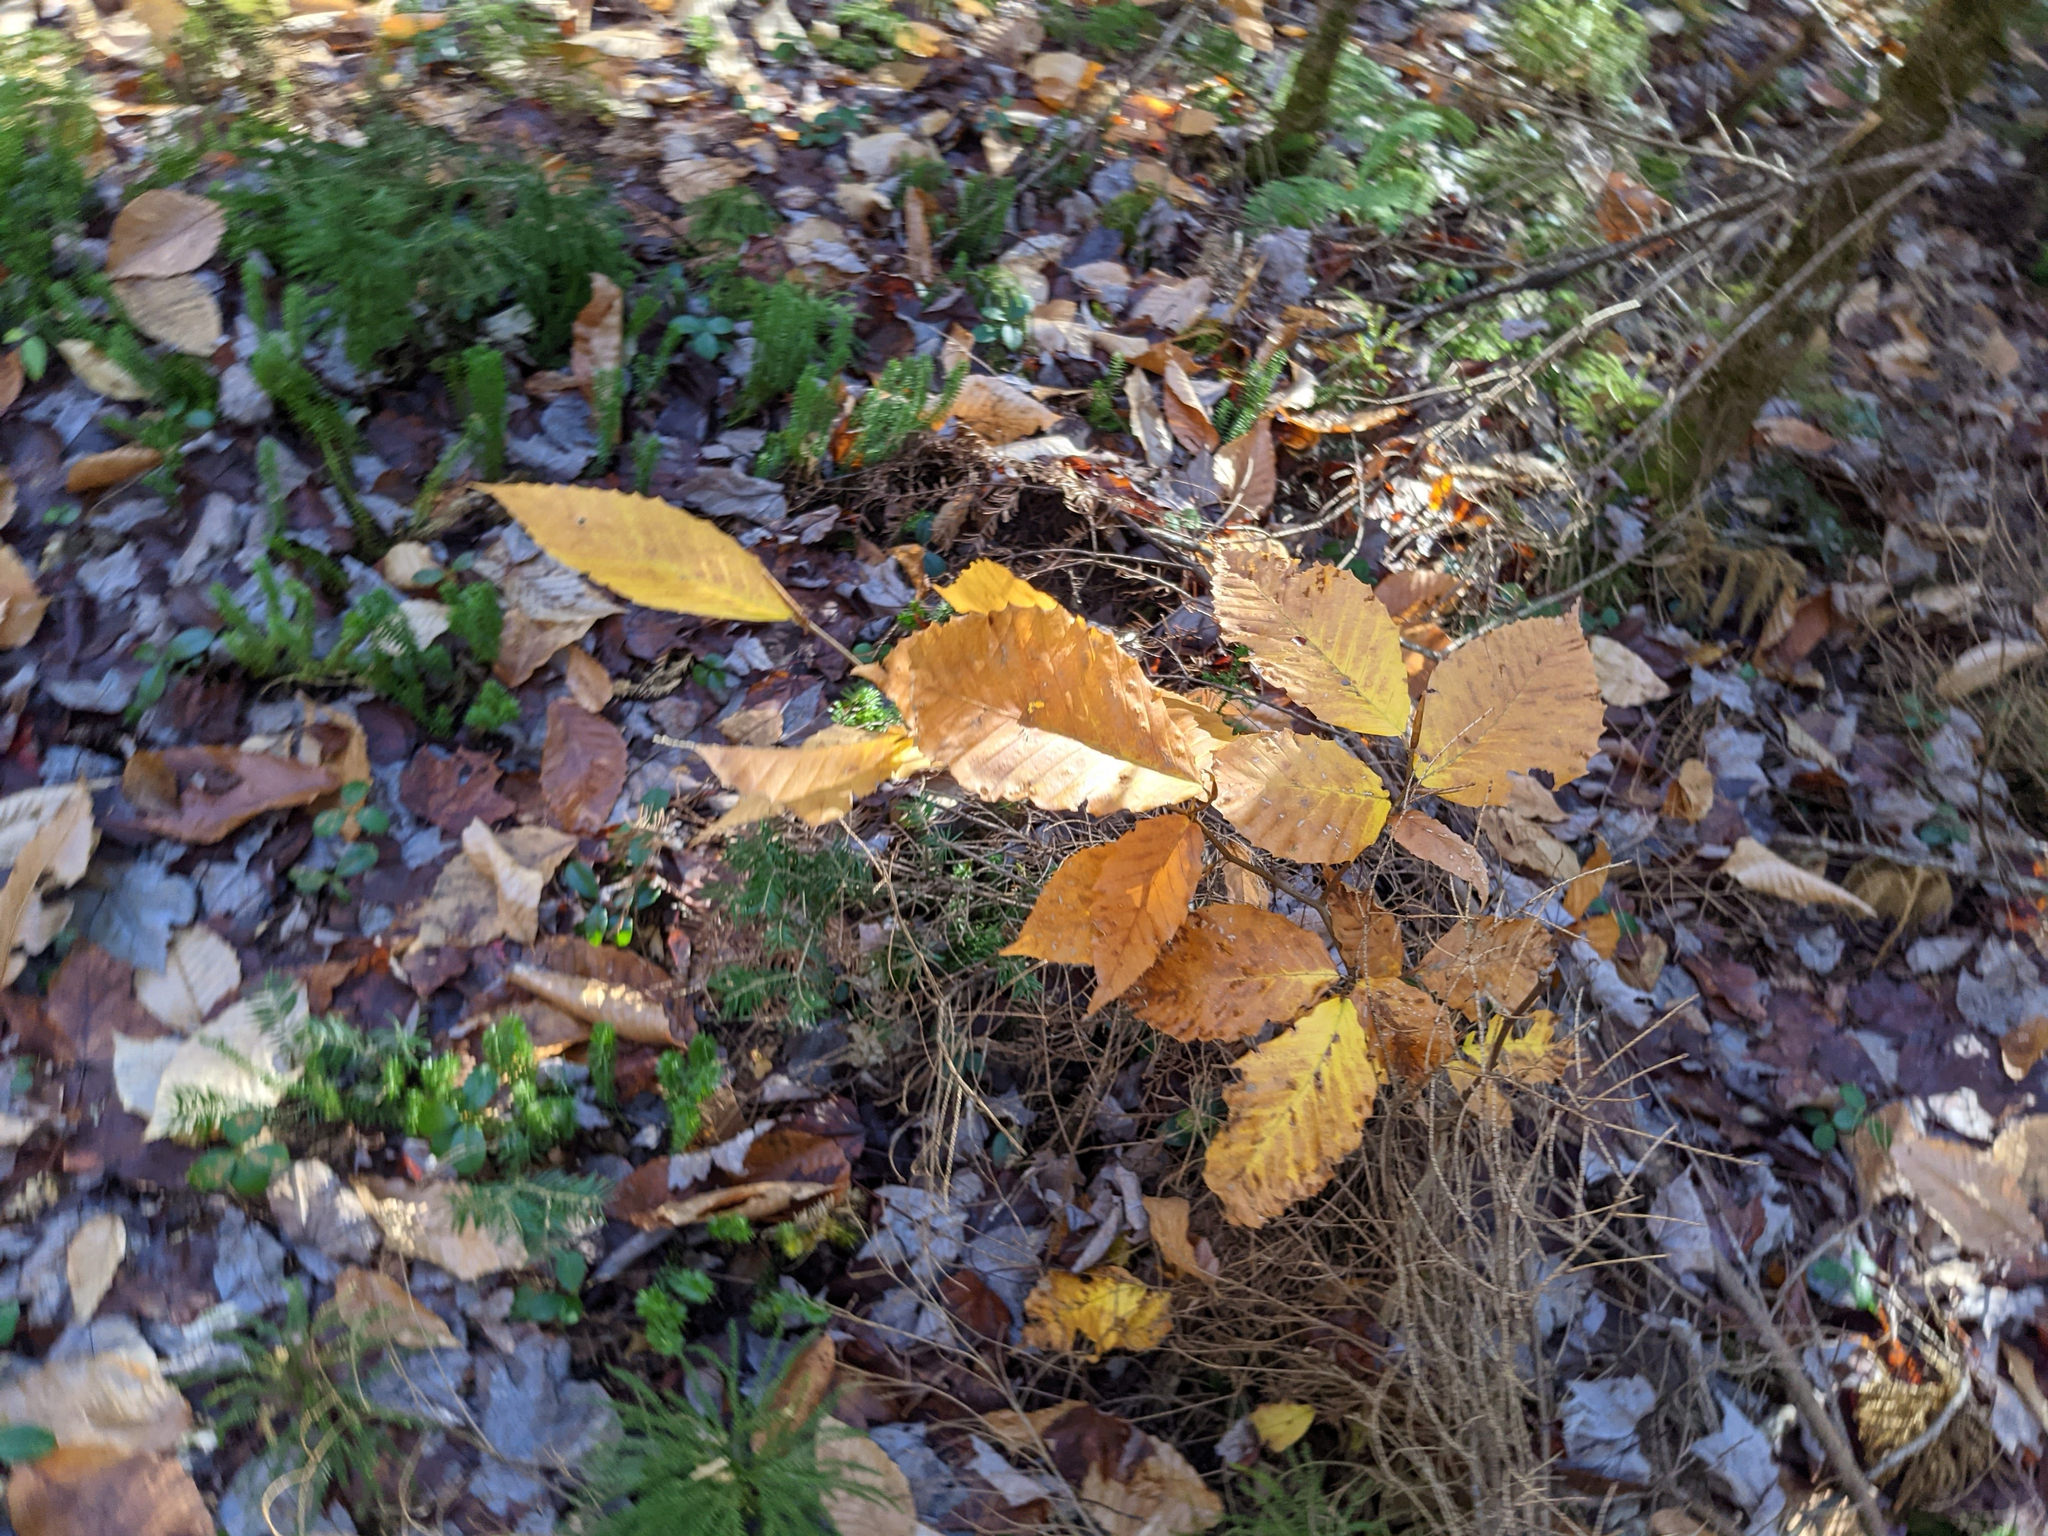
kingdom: Plantae
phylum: Tracheophyta
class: Magnoliopsida
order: Fagales
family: Fagaceae
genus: Fagus
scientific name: Fagus grandifolia
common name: American beech
